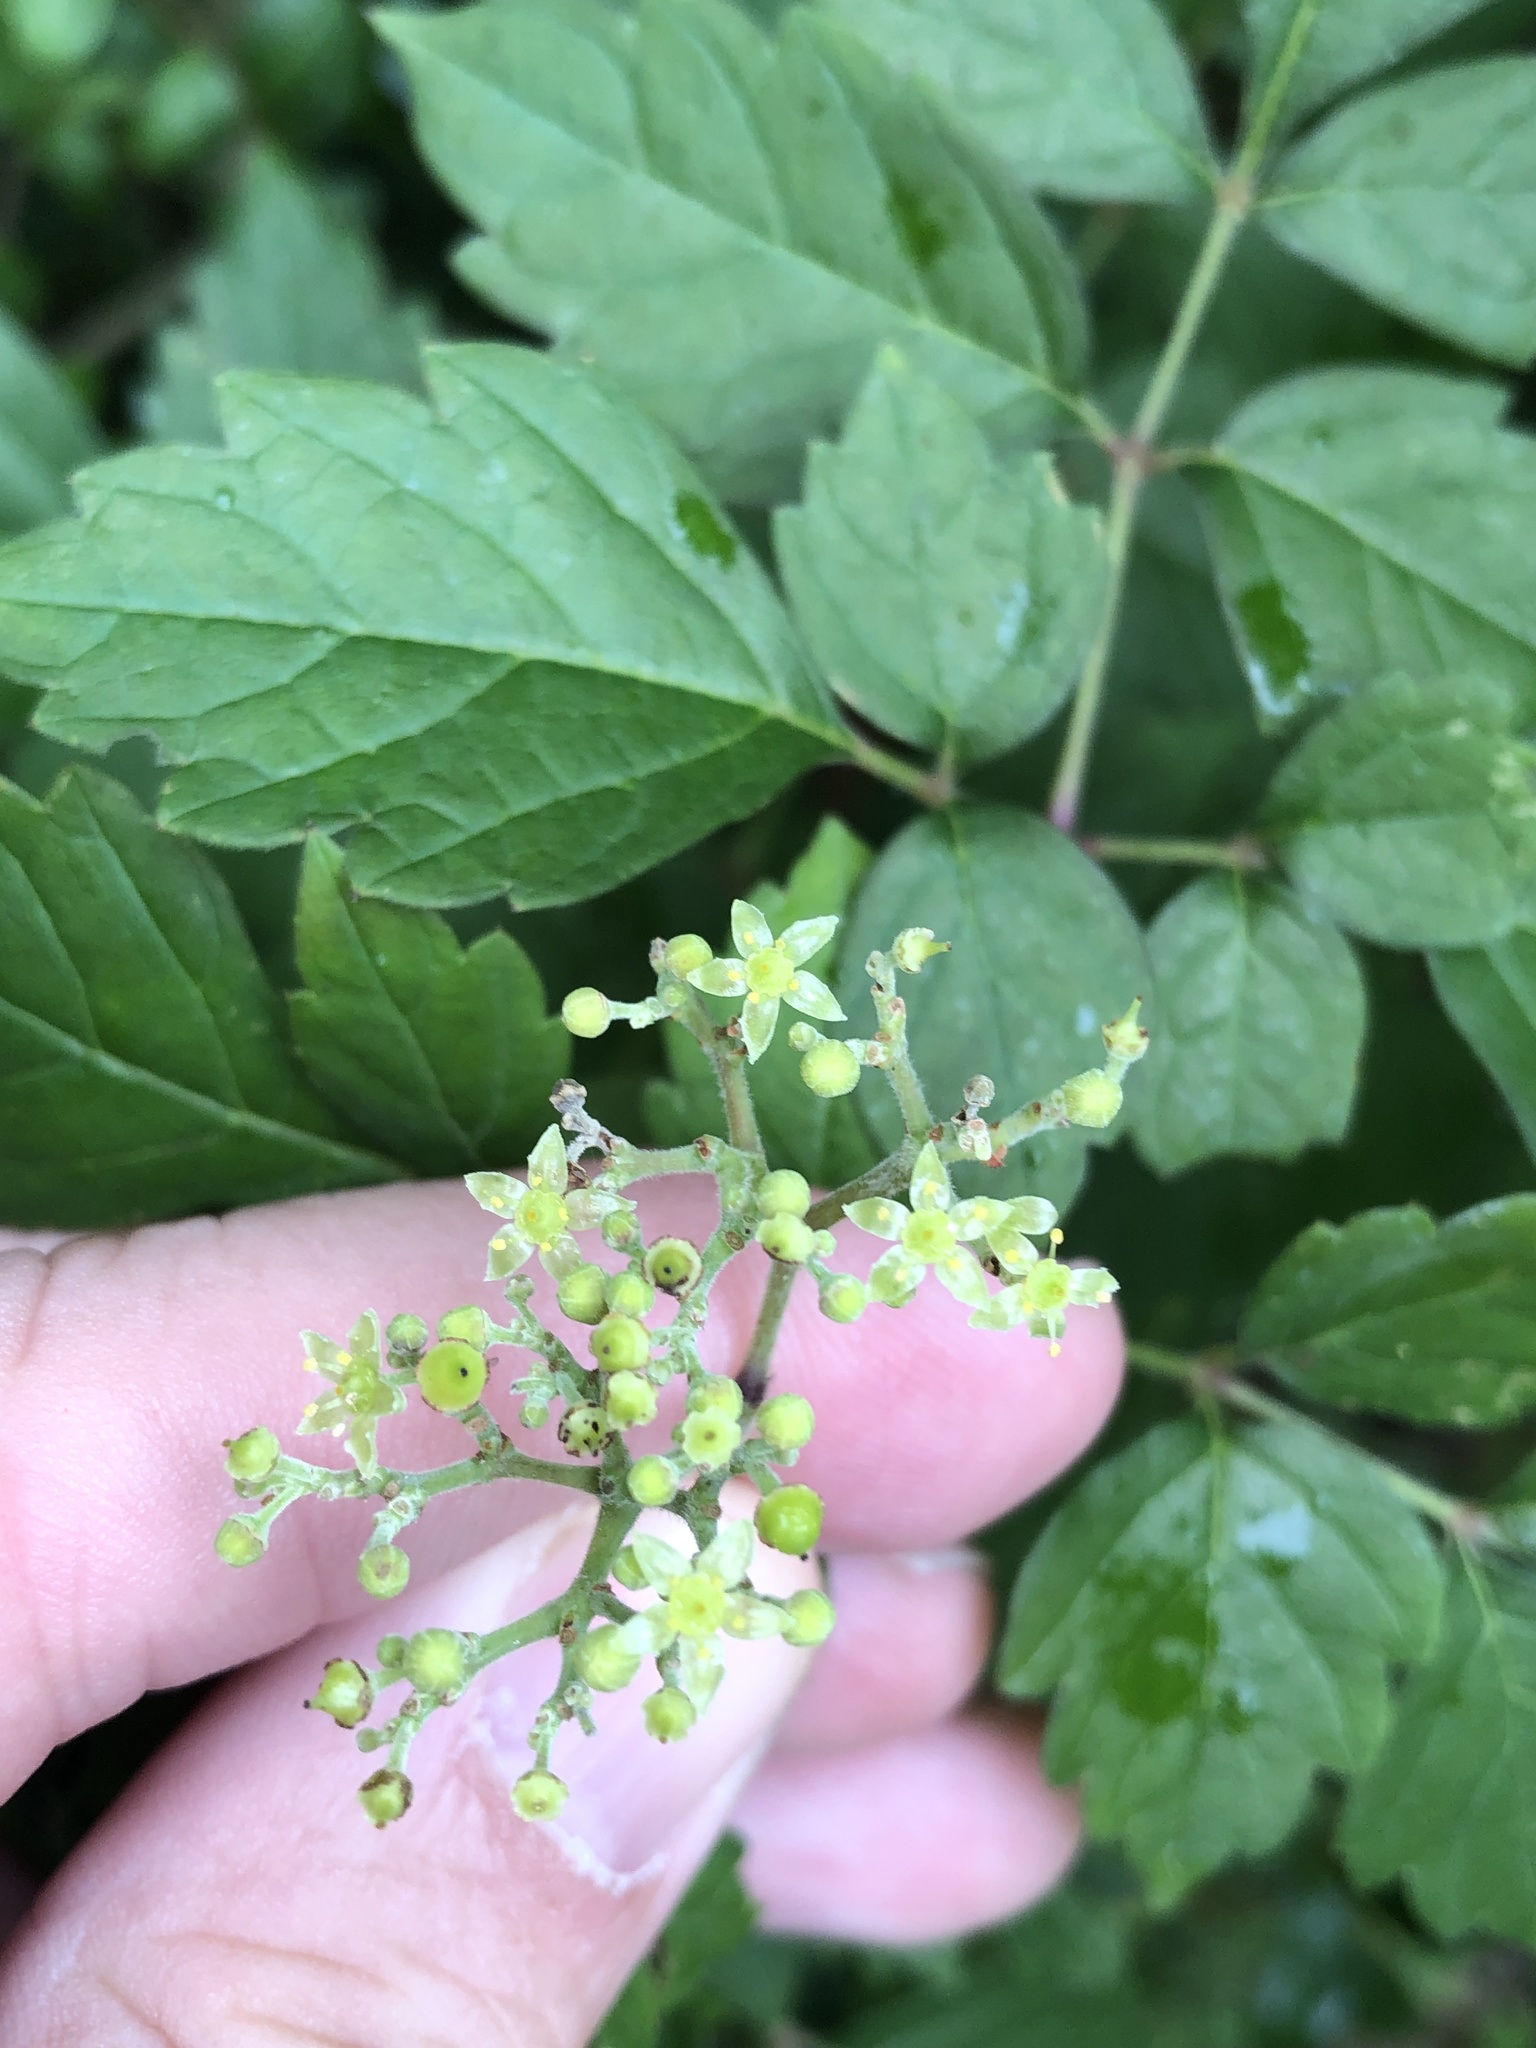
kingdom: Plantae
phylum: Tracheophyta
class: Magnoliopsida
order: Vitales
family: Vitaceae
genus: Nekemias
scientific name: Nekemias arborea
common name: Peppervine
